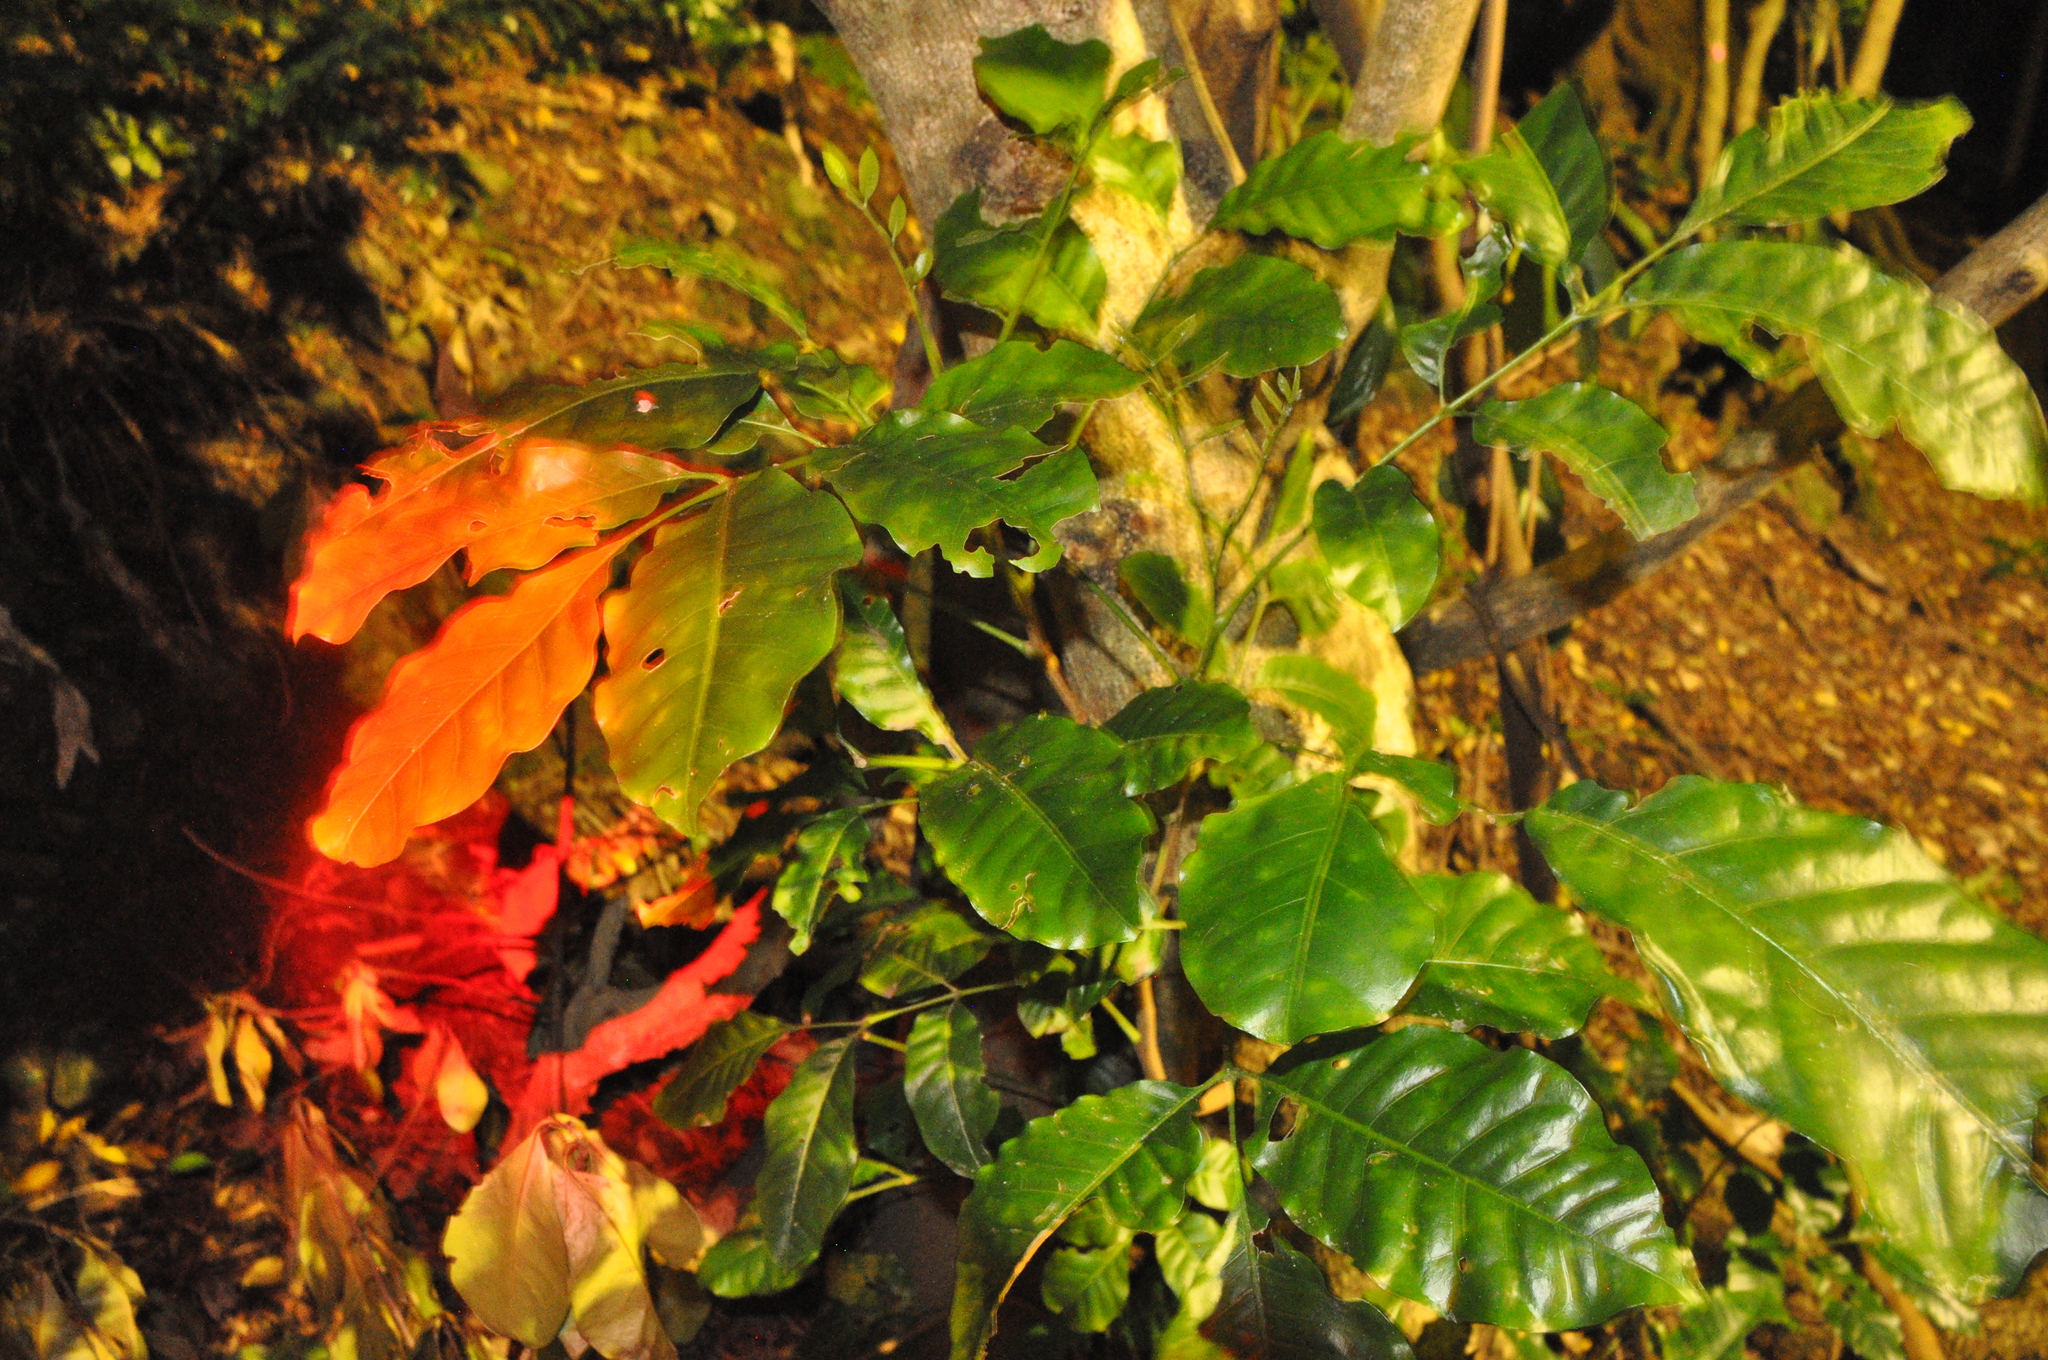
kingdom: Plantae
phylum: Tracheophyta
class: Magnoliopsida
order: Sapindales
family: Meliaceae
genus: Didymocheton
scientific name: Didymocheton spectabilis
